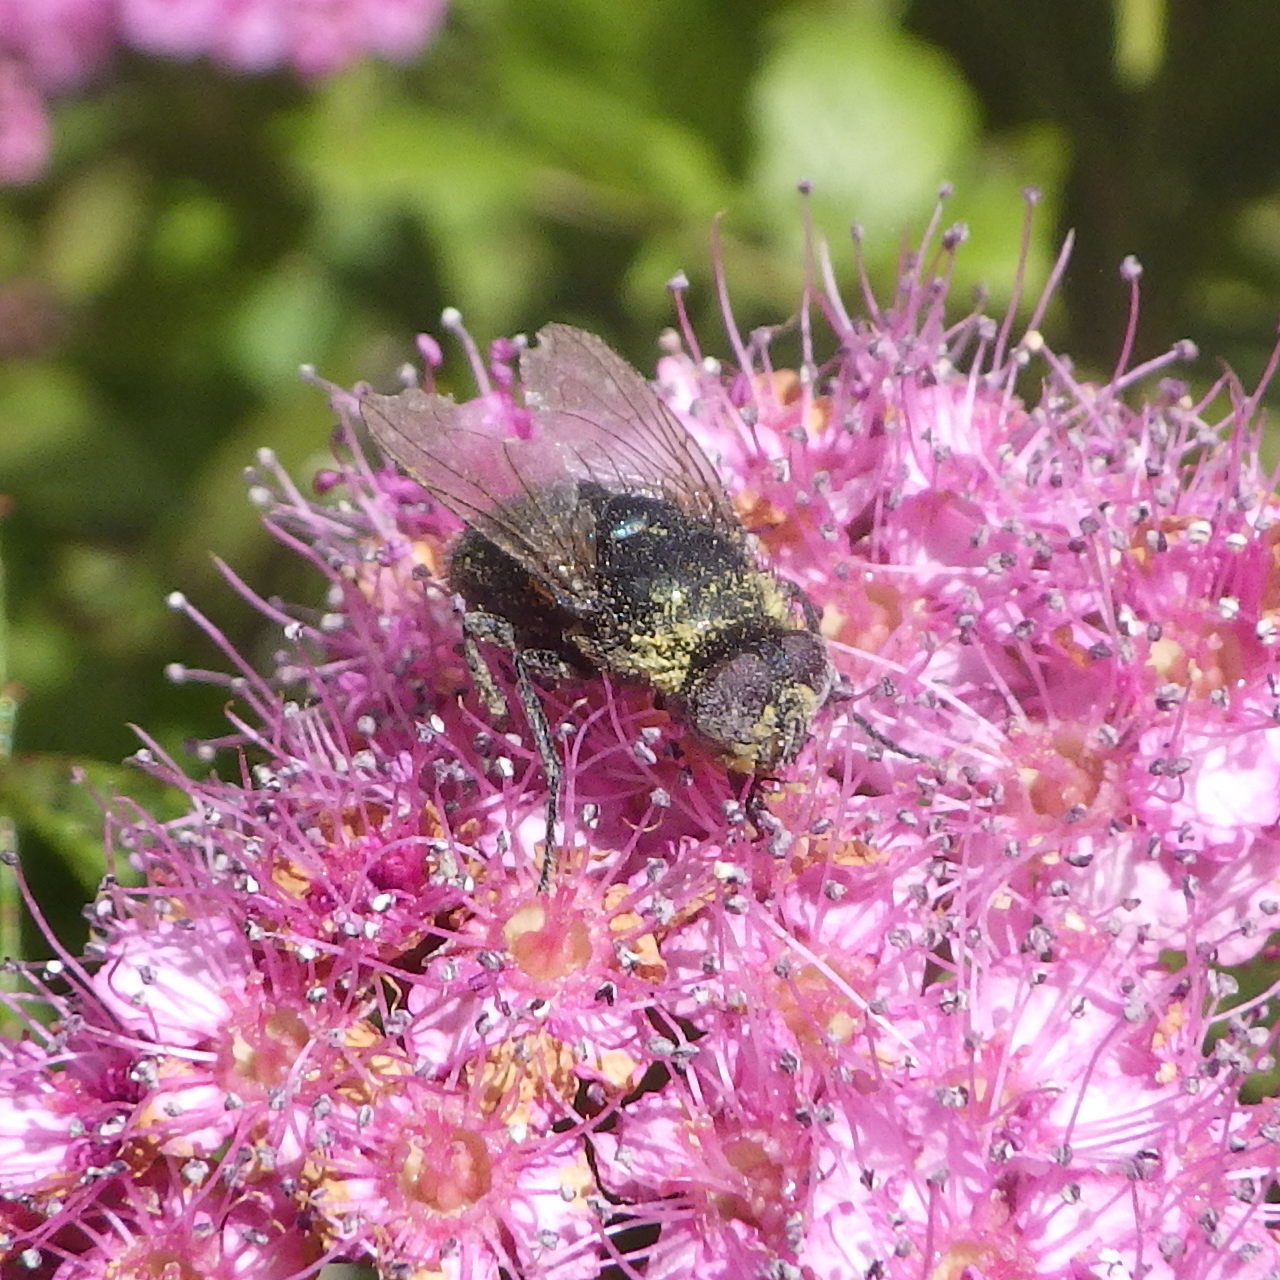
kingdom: Animalia
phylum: Arthropoda
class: Insecta
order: Diptera
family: Calliphoridae
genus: Protophormia
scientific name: Protophormia terraenovae
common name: Blackbottle
